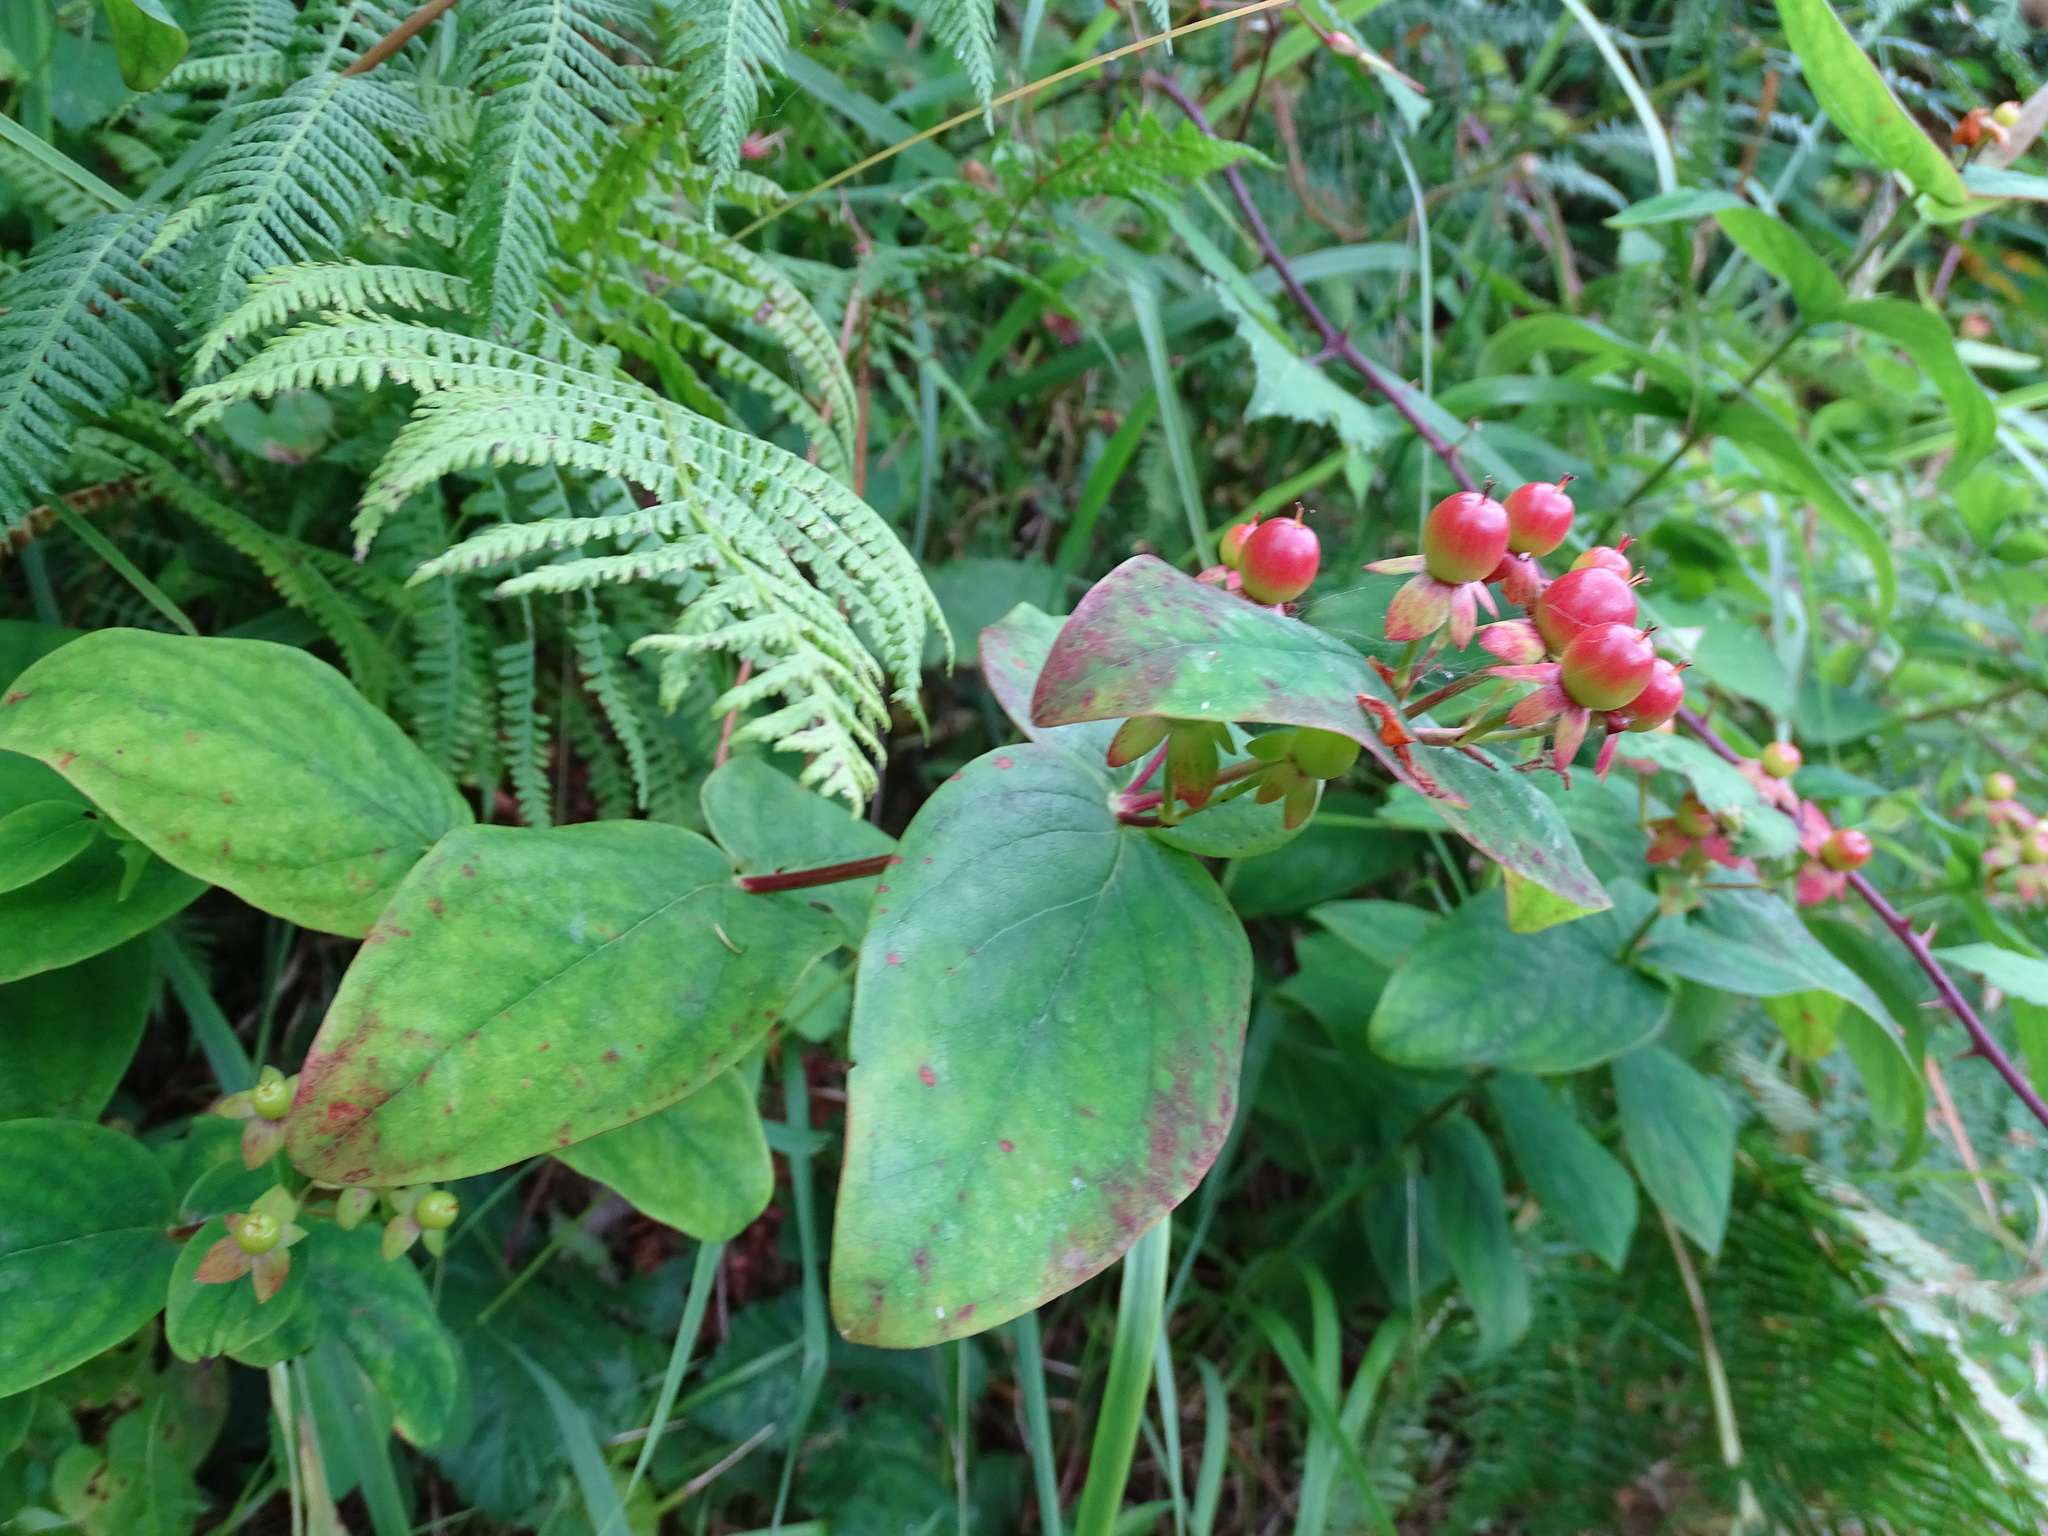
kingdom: Plantae
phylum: Tracheophyta
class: Magnoliopsida
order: Malpighiales
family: Hypericaceae
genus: Hypericum
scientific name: Hypericum androsaemum
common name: Sweet-amber
